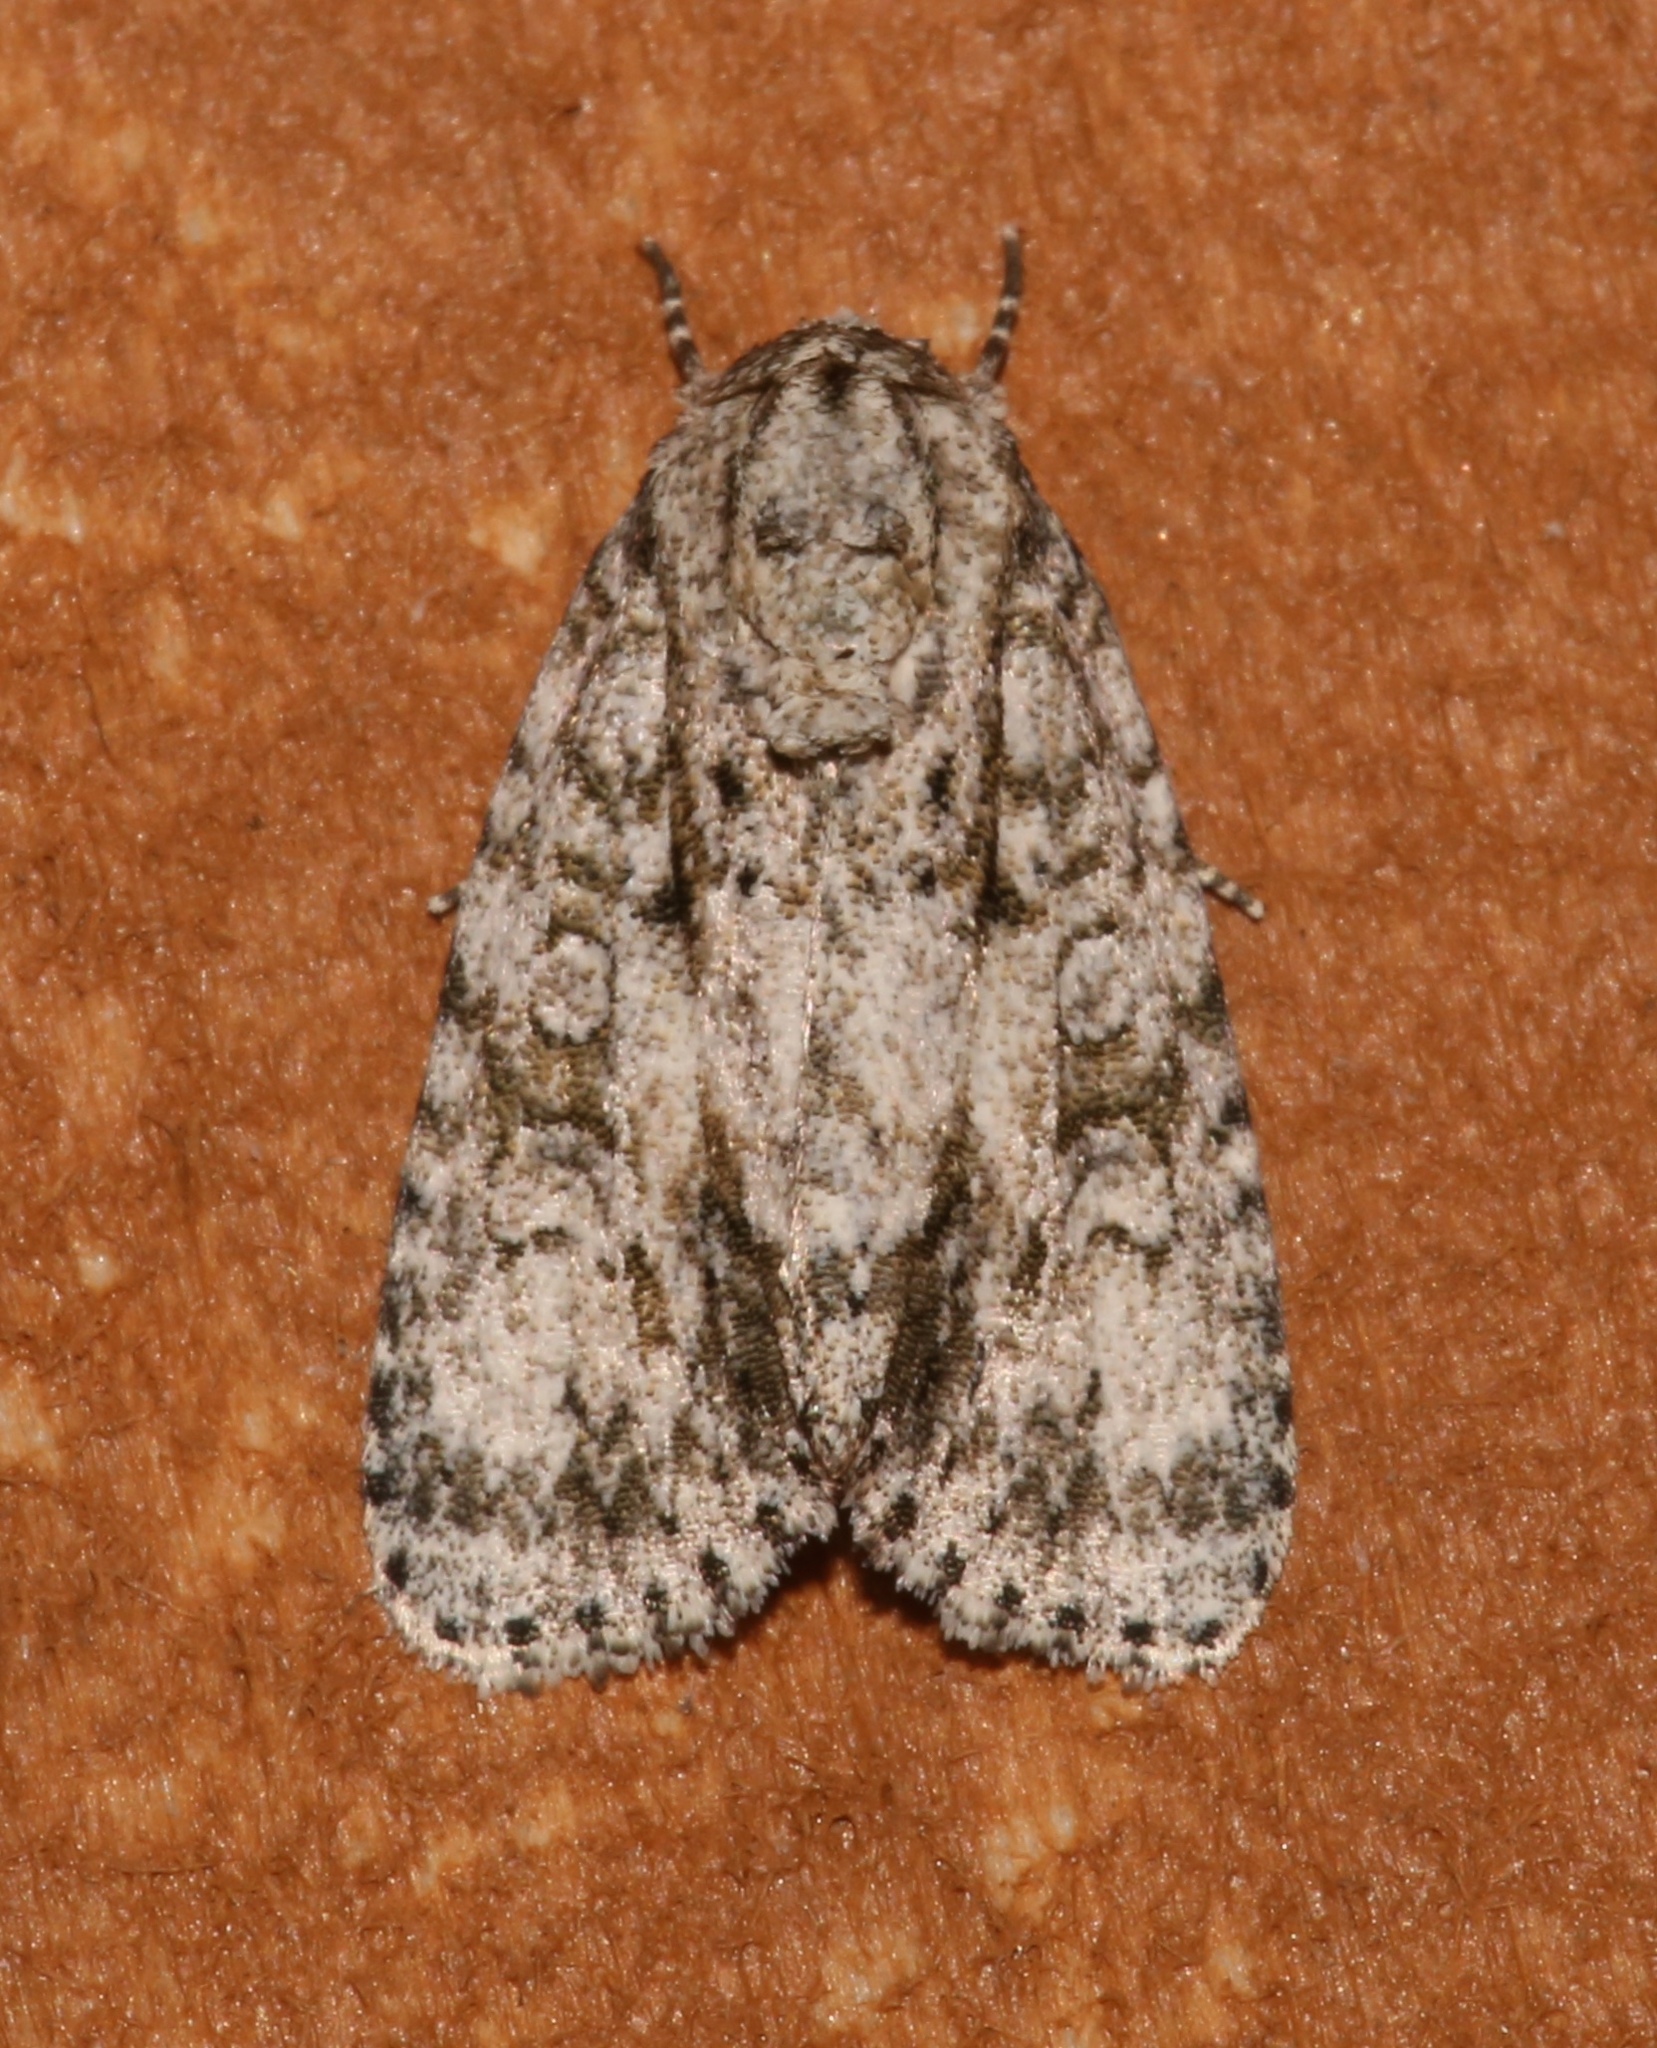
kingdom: Animalia
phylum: Arthropoda
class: Insecta
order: Lepidoptera
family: Noctuidae
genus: Acronicta
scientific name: Acronicta retardata
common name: Maple dagger
